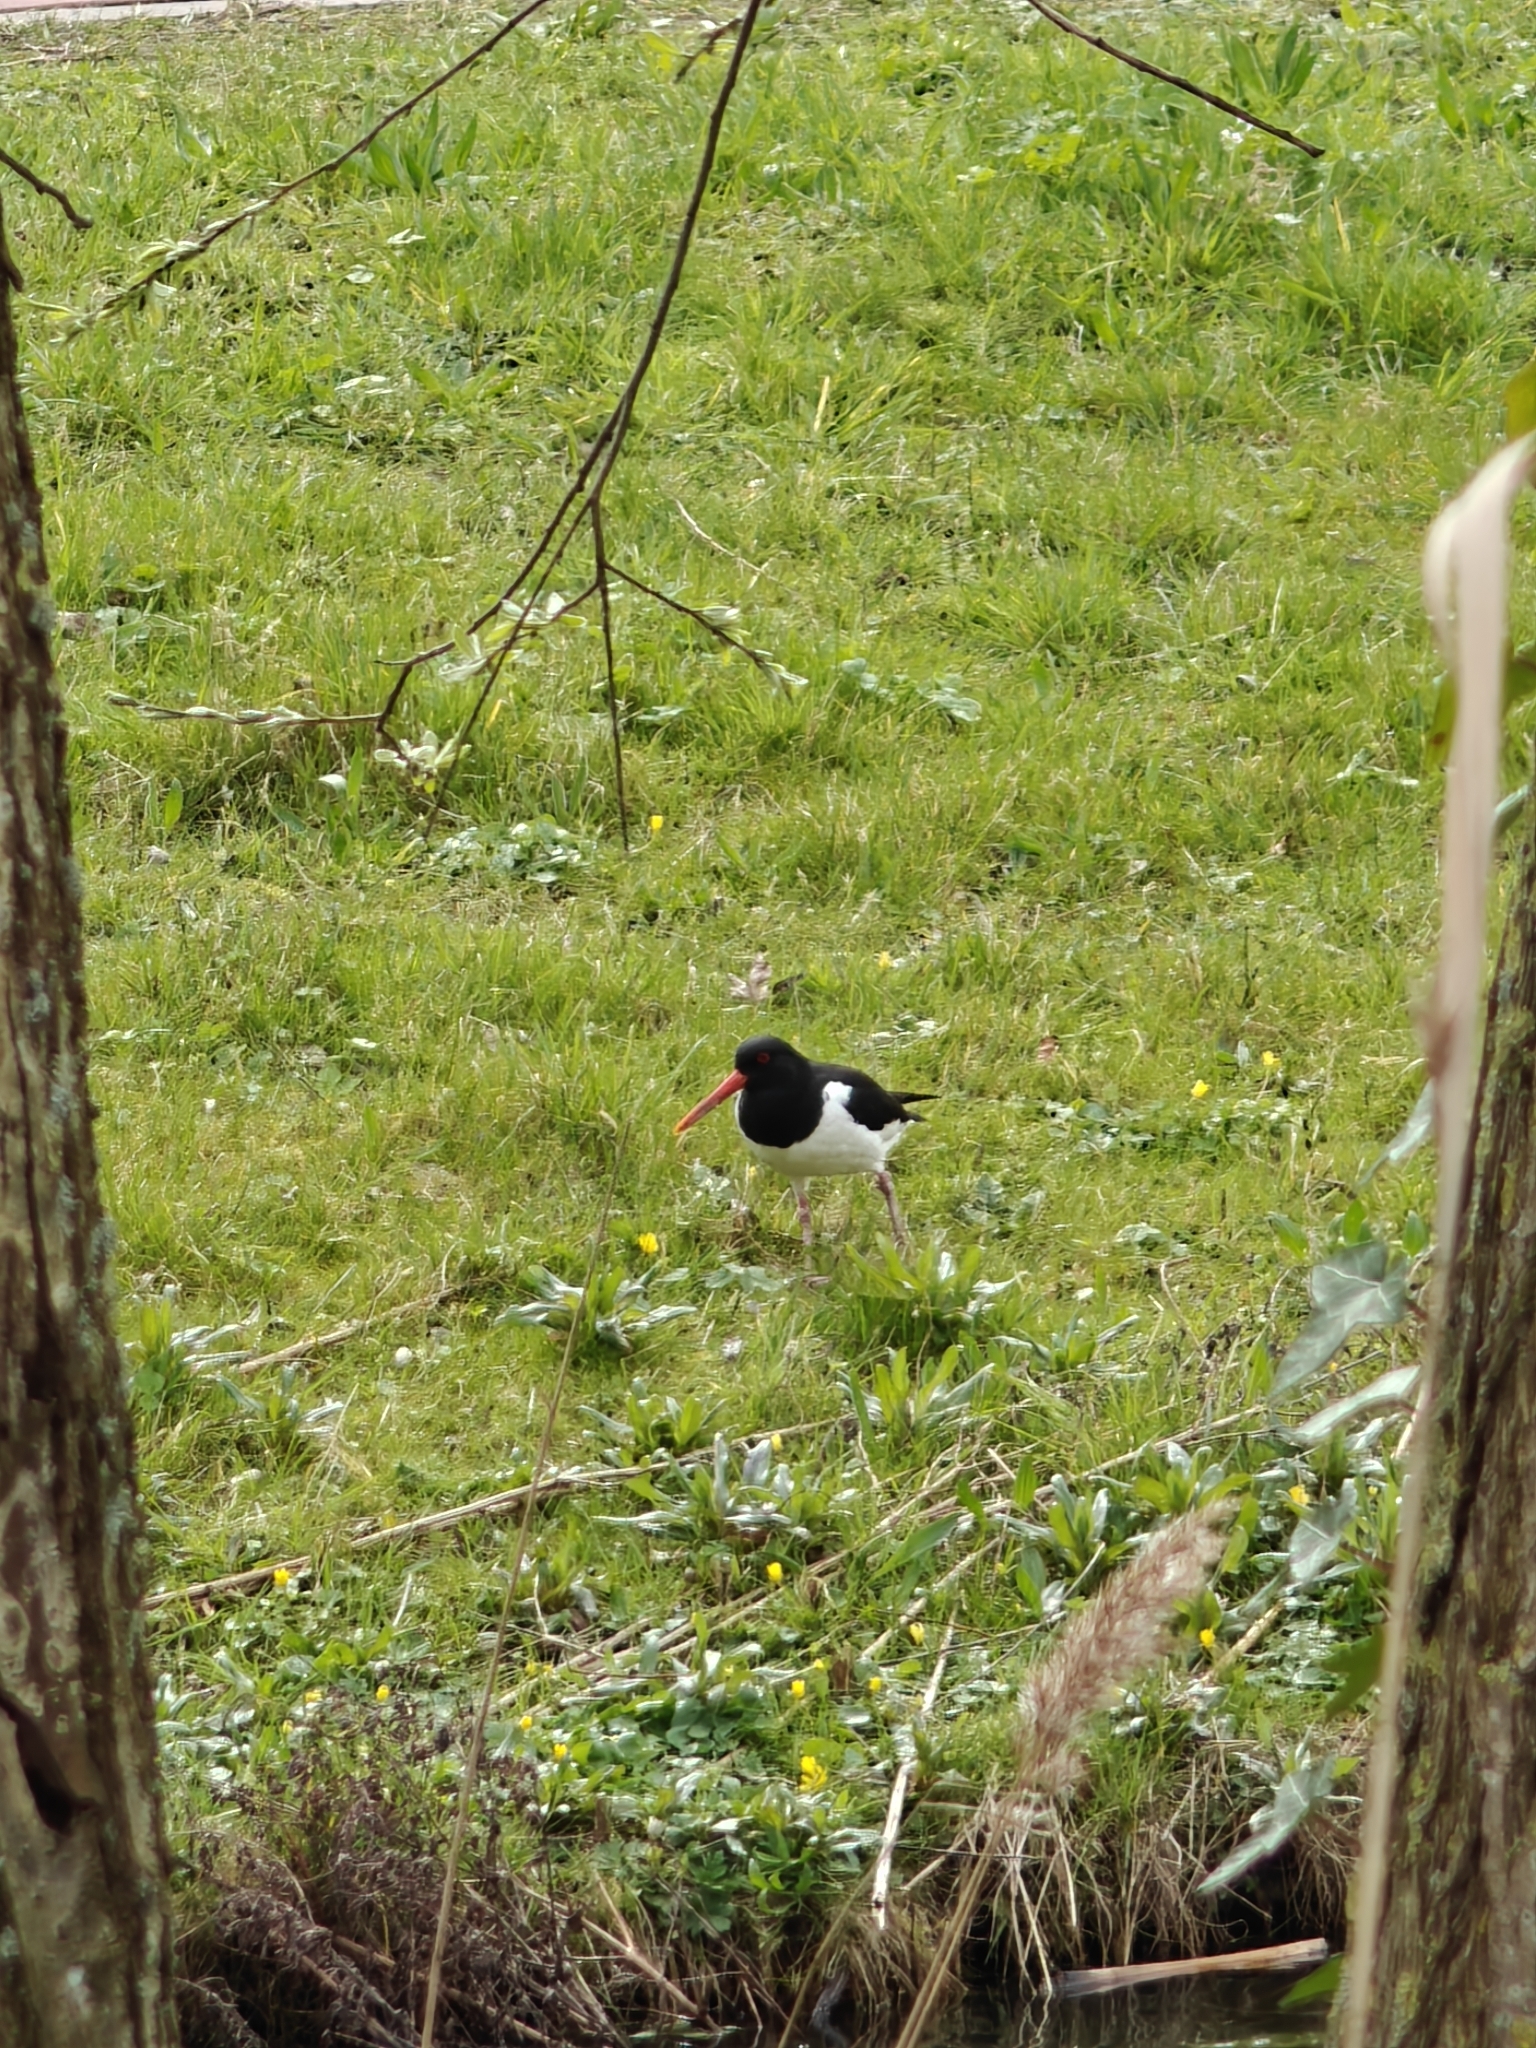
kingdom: Animalia
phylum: Chordata
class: Aves
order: Charadriiformes
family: Haematopodidae
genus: Haematopus
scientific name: Haematopus ostralegus
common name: Eurasian oystercatcher
